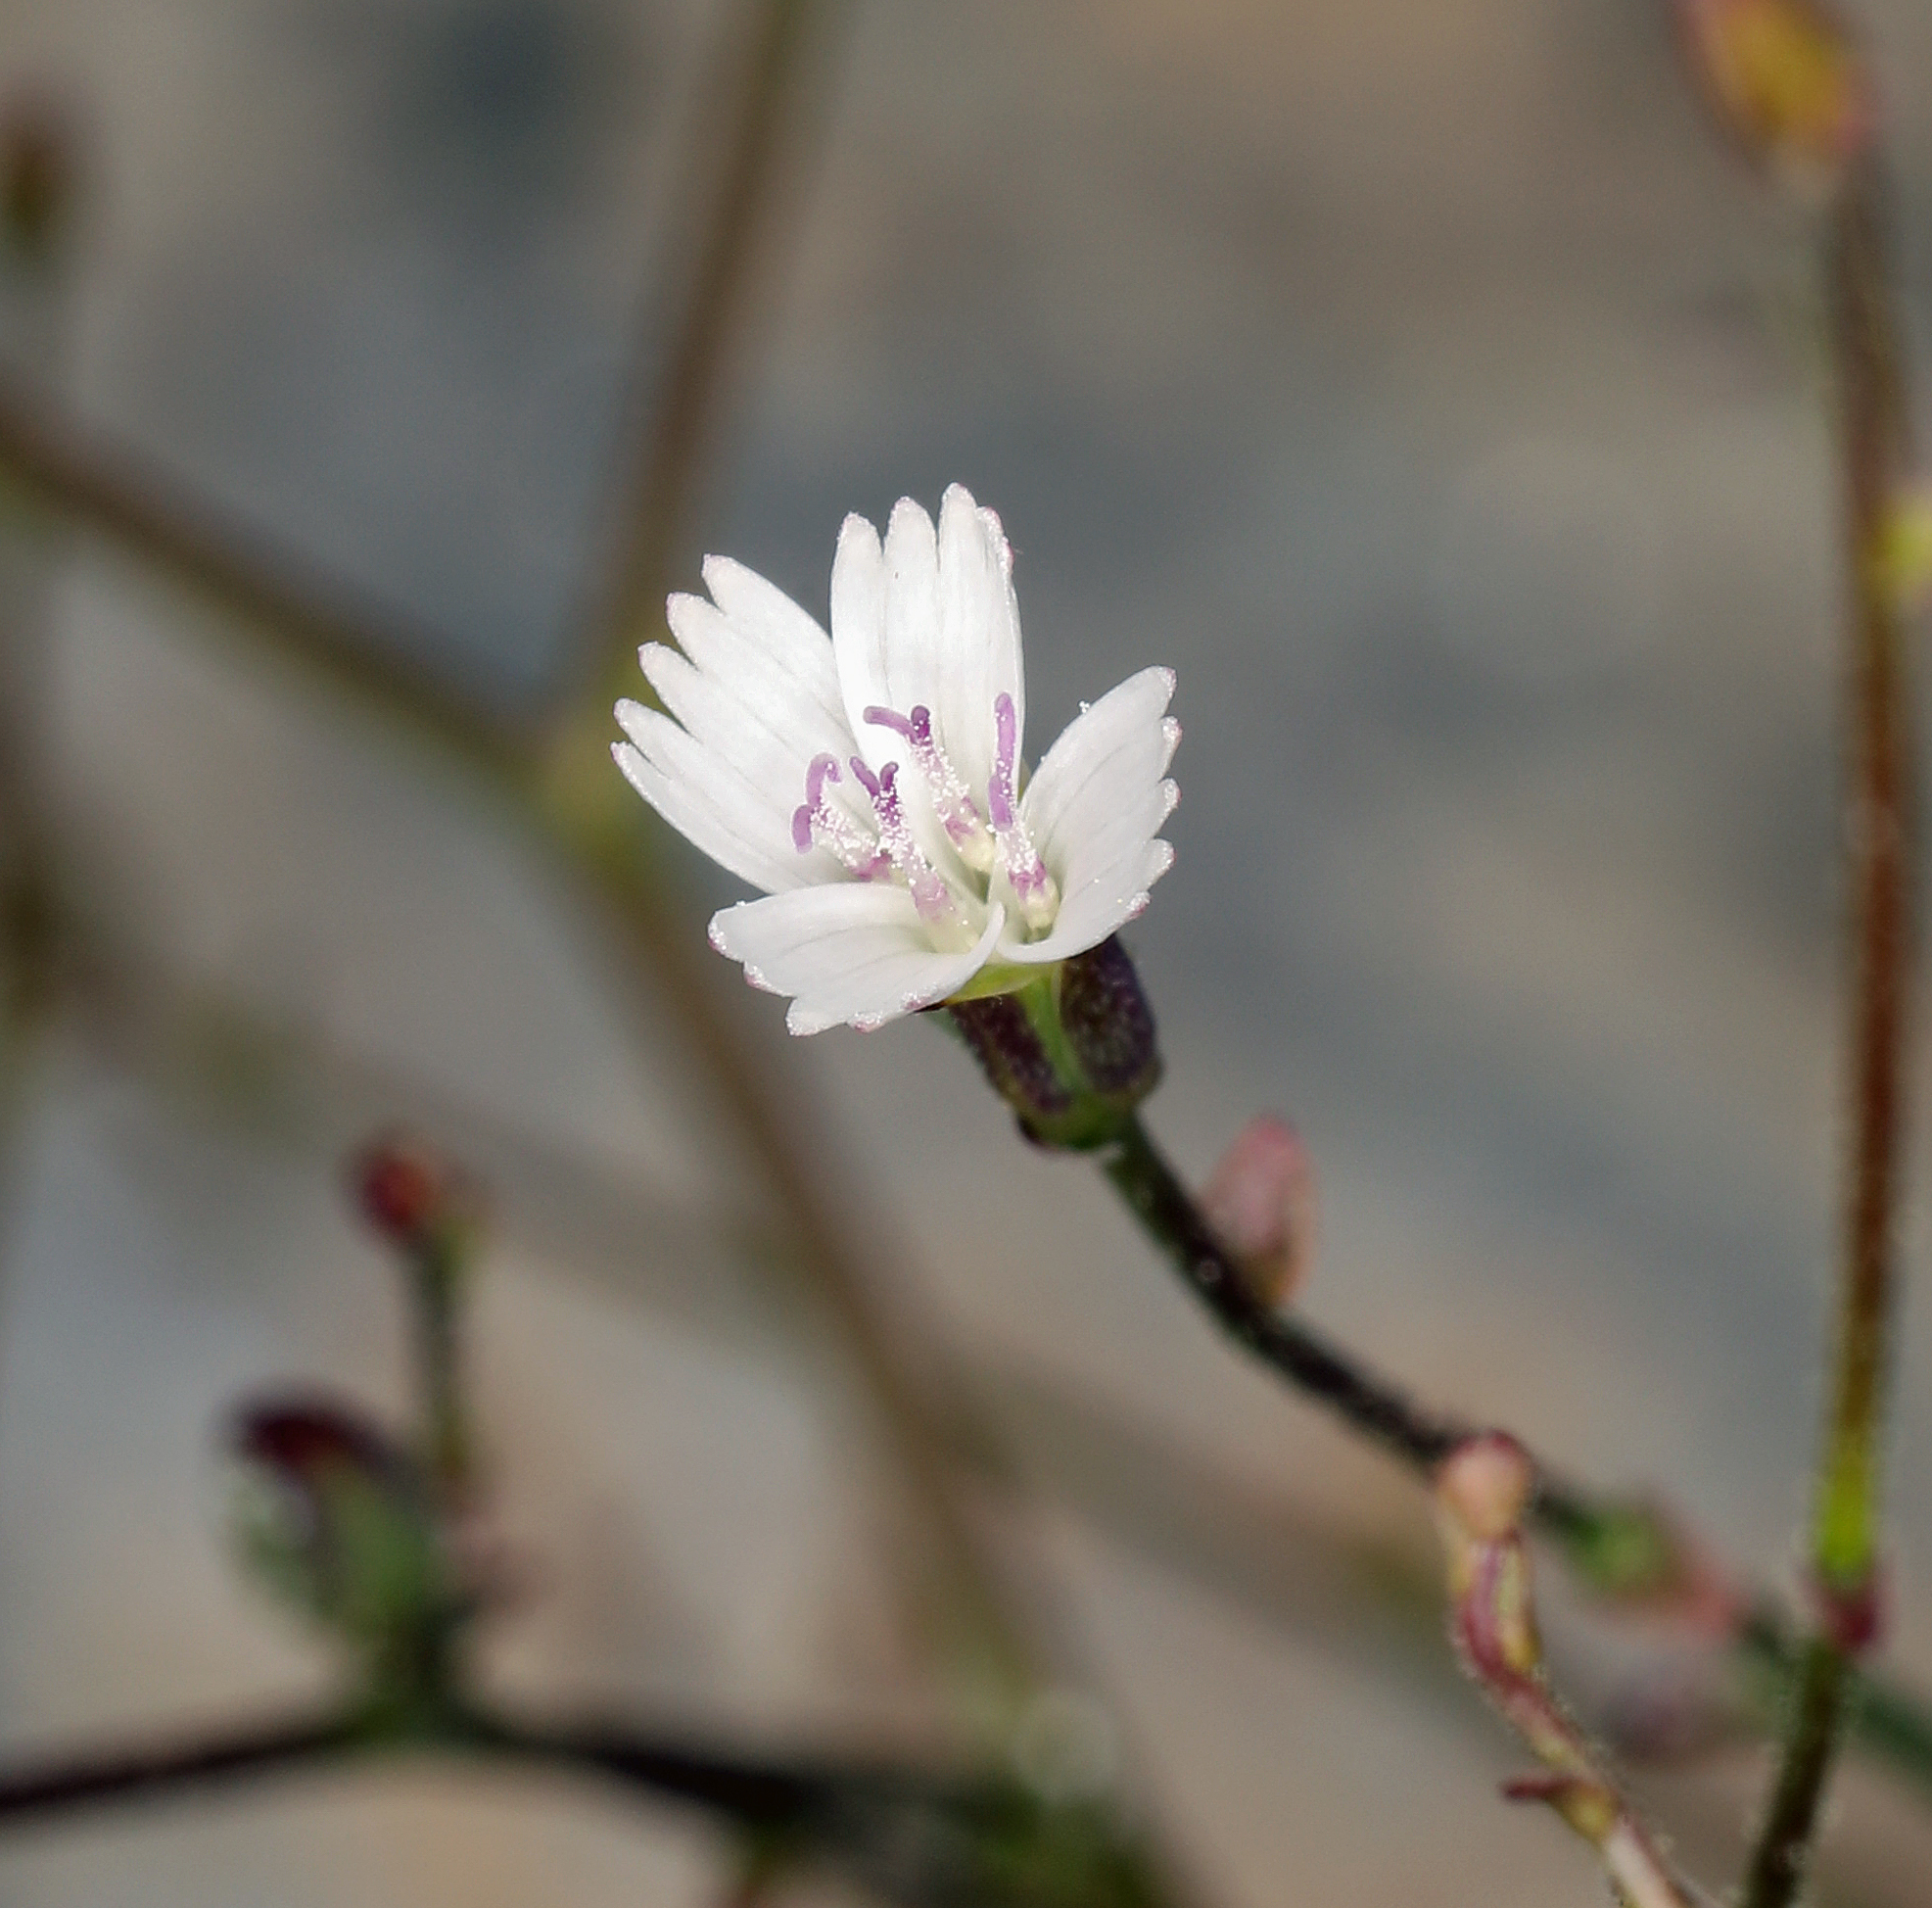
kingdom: Plantae
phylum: Tracheophyta
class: Magnoliopsida
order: Asterales
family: Asteraceae
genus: Lygodesmia
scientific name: Lygodesmia exigua
